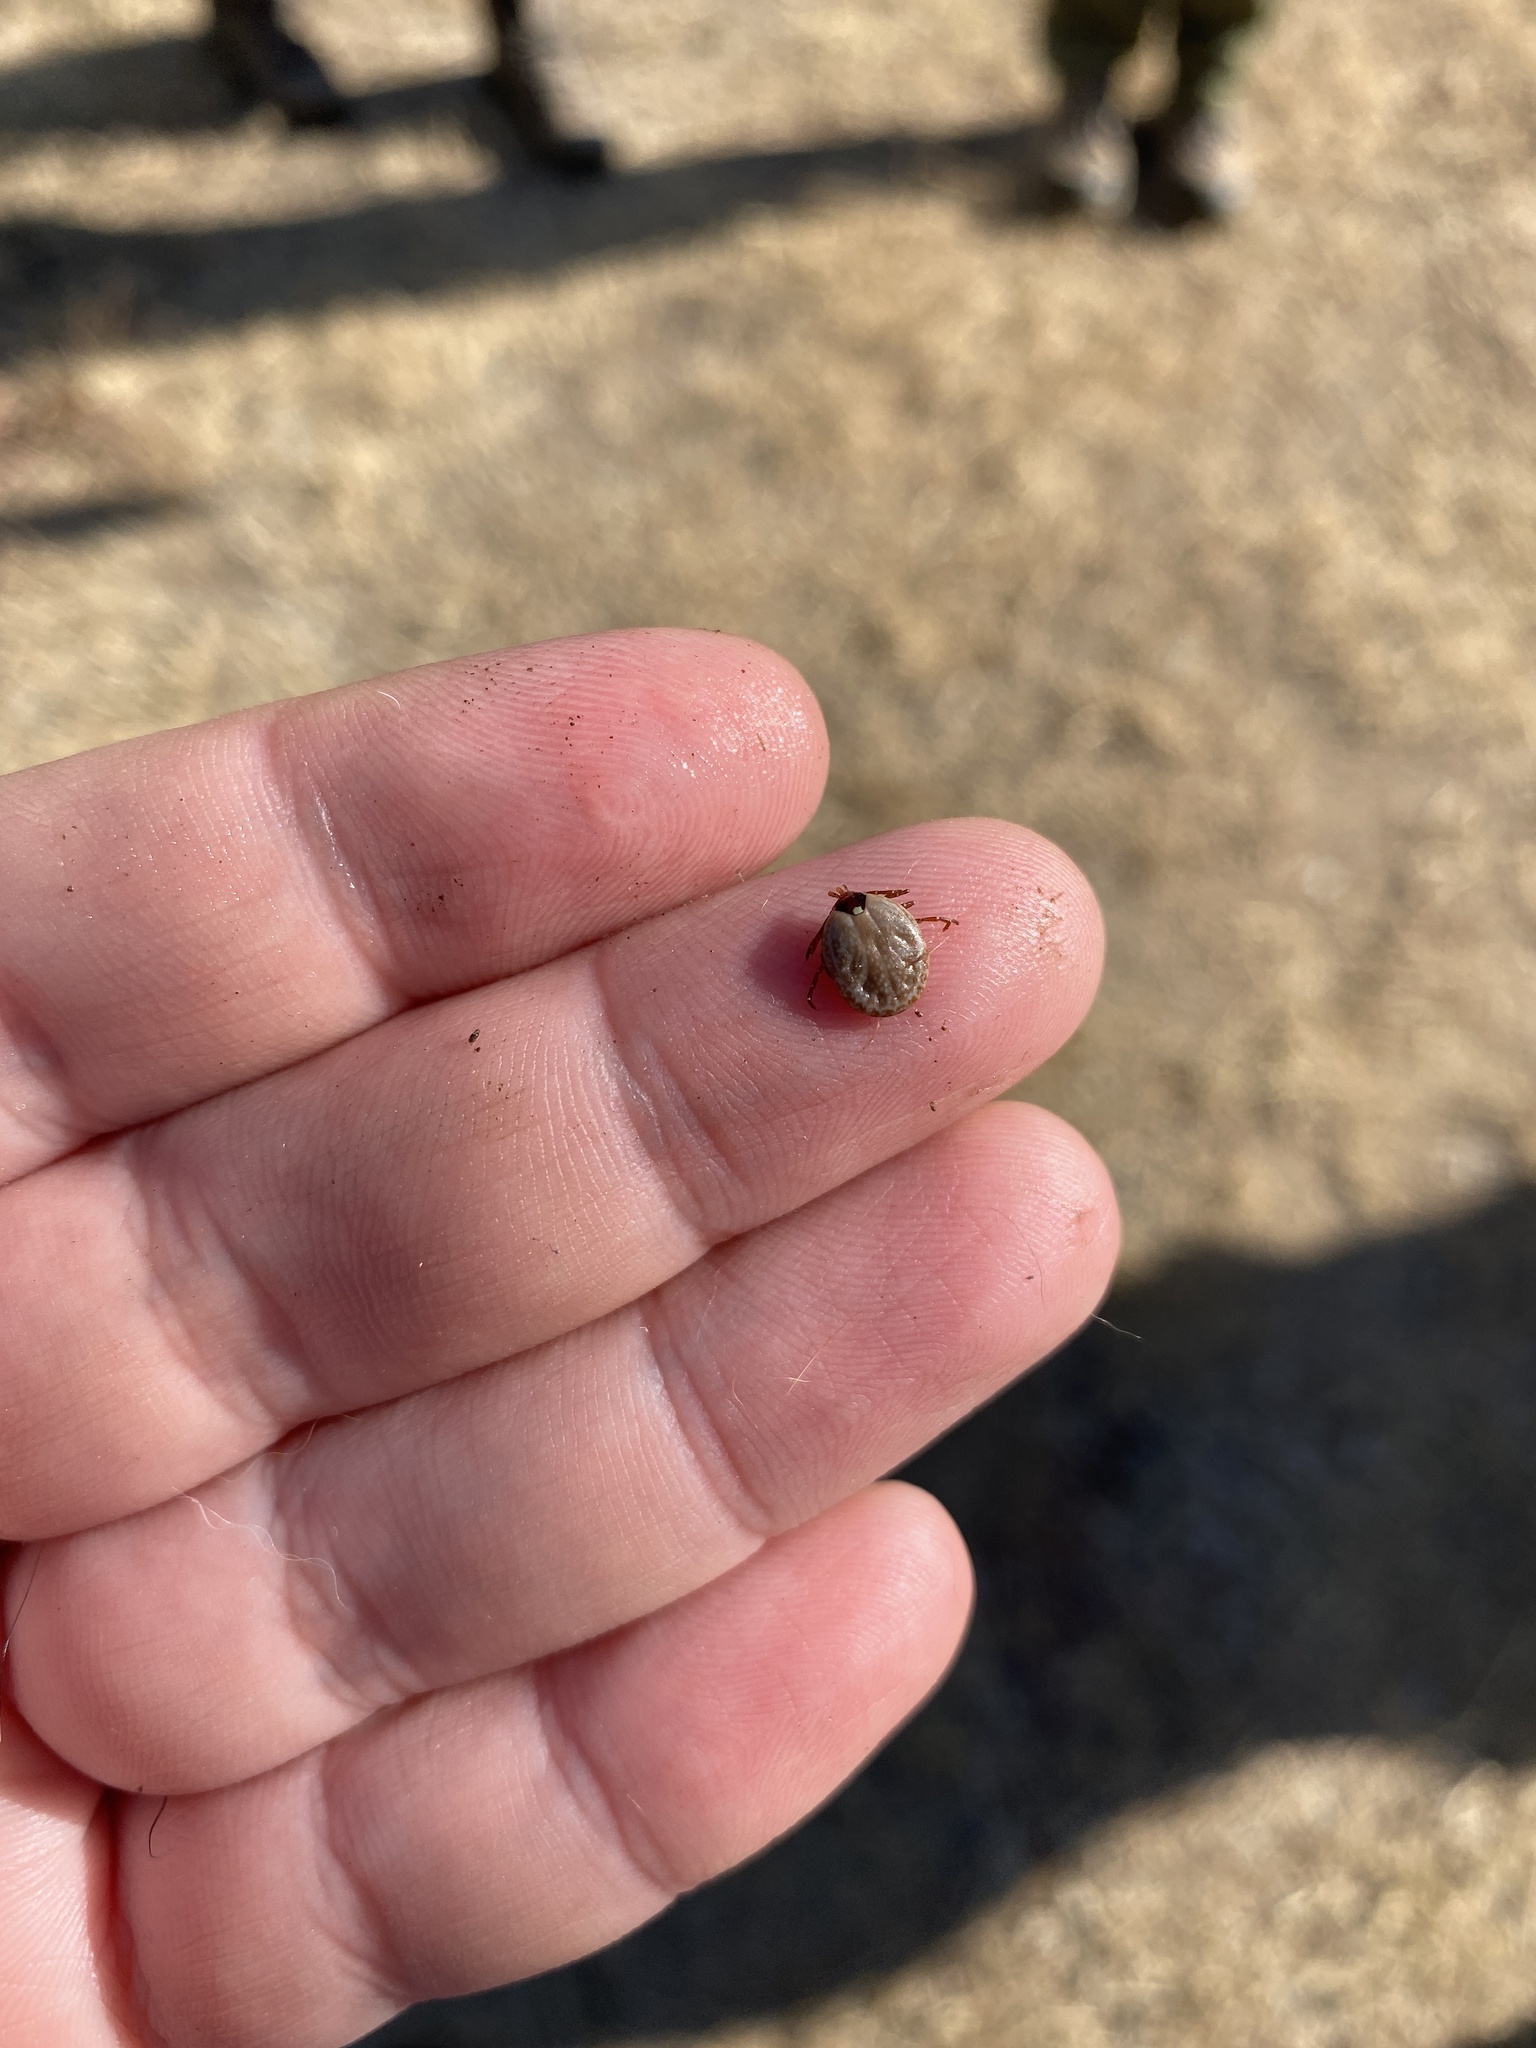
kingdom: Animalia
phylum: Arthropoda
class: Arachnida
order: Ixodida
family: Ixodidae
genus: Amblyomma
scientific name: Amblyomma americanum
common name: Lone star tick
